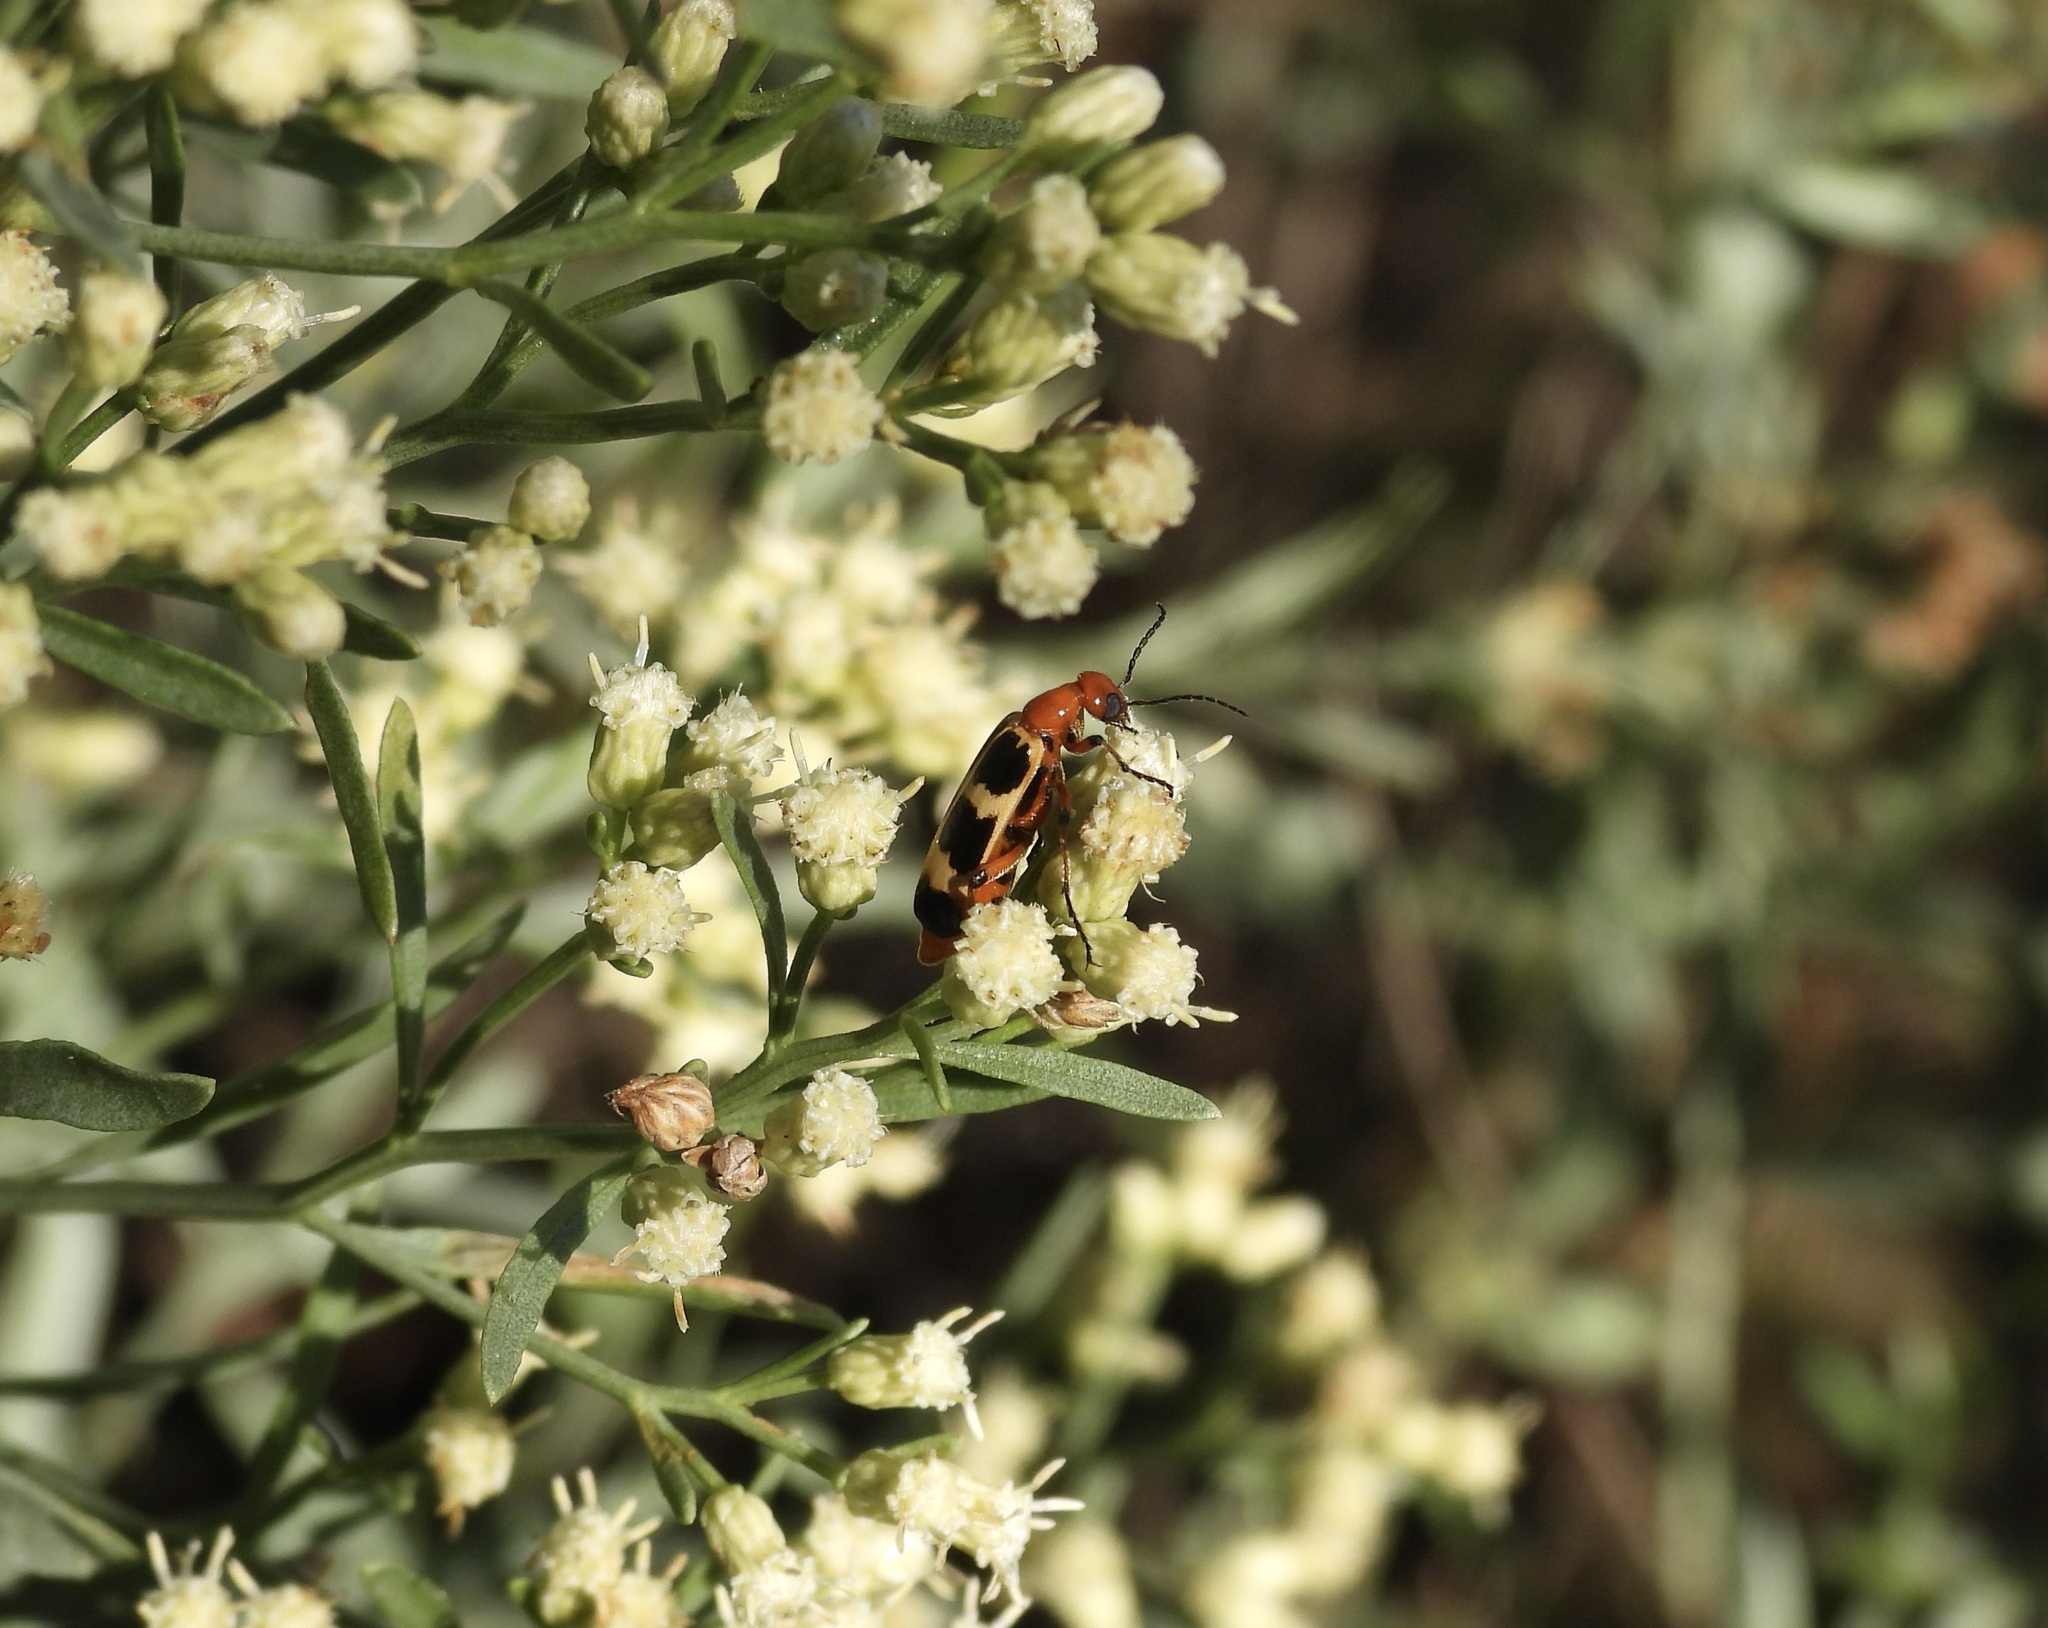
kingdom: Animalia
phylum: Arthropoda
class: Insecta
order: Coleoptera
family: Meloidae
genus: Pyrota
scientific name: Pyrota palpalis
